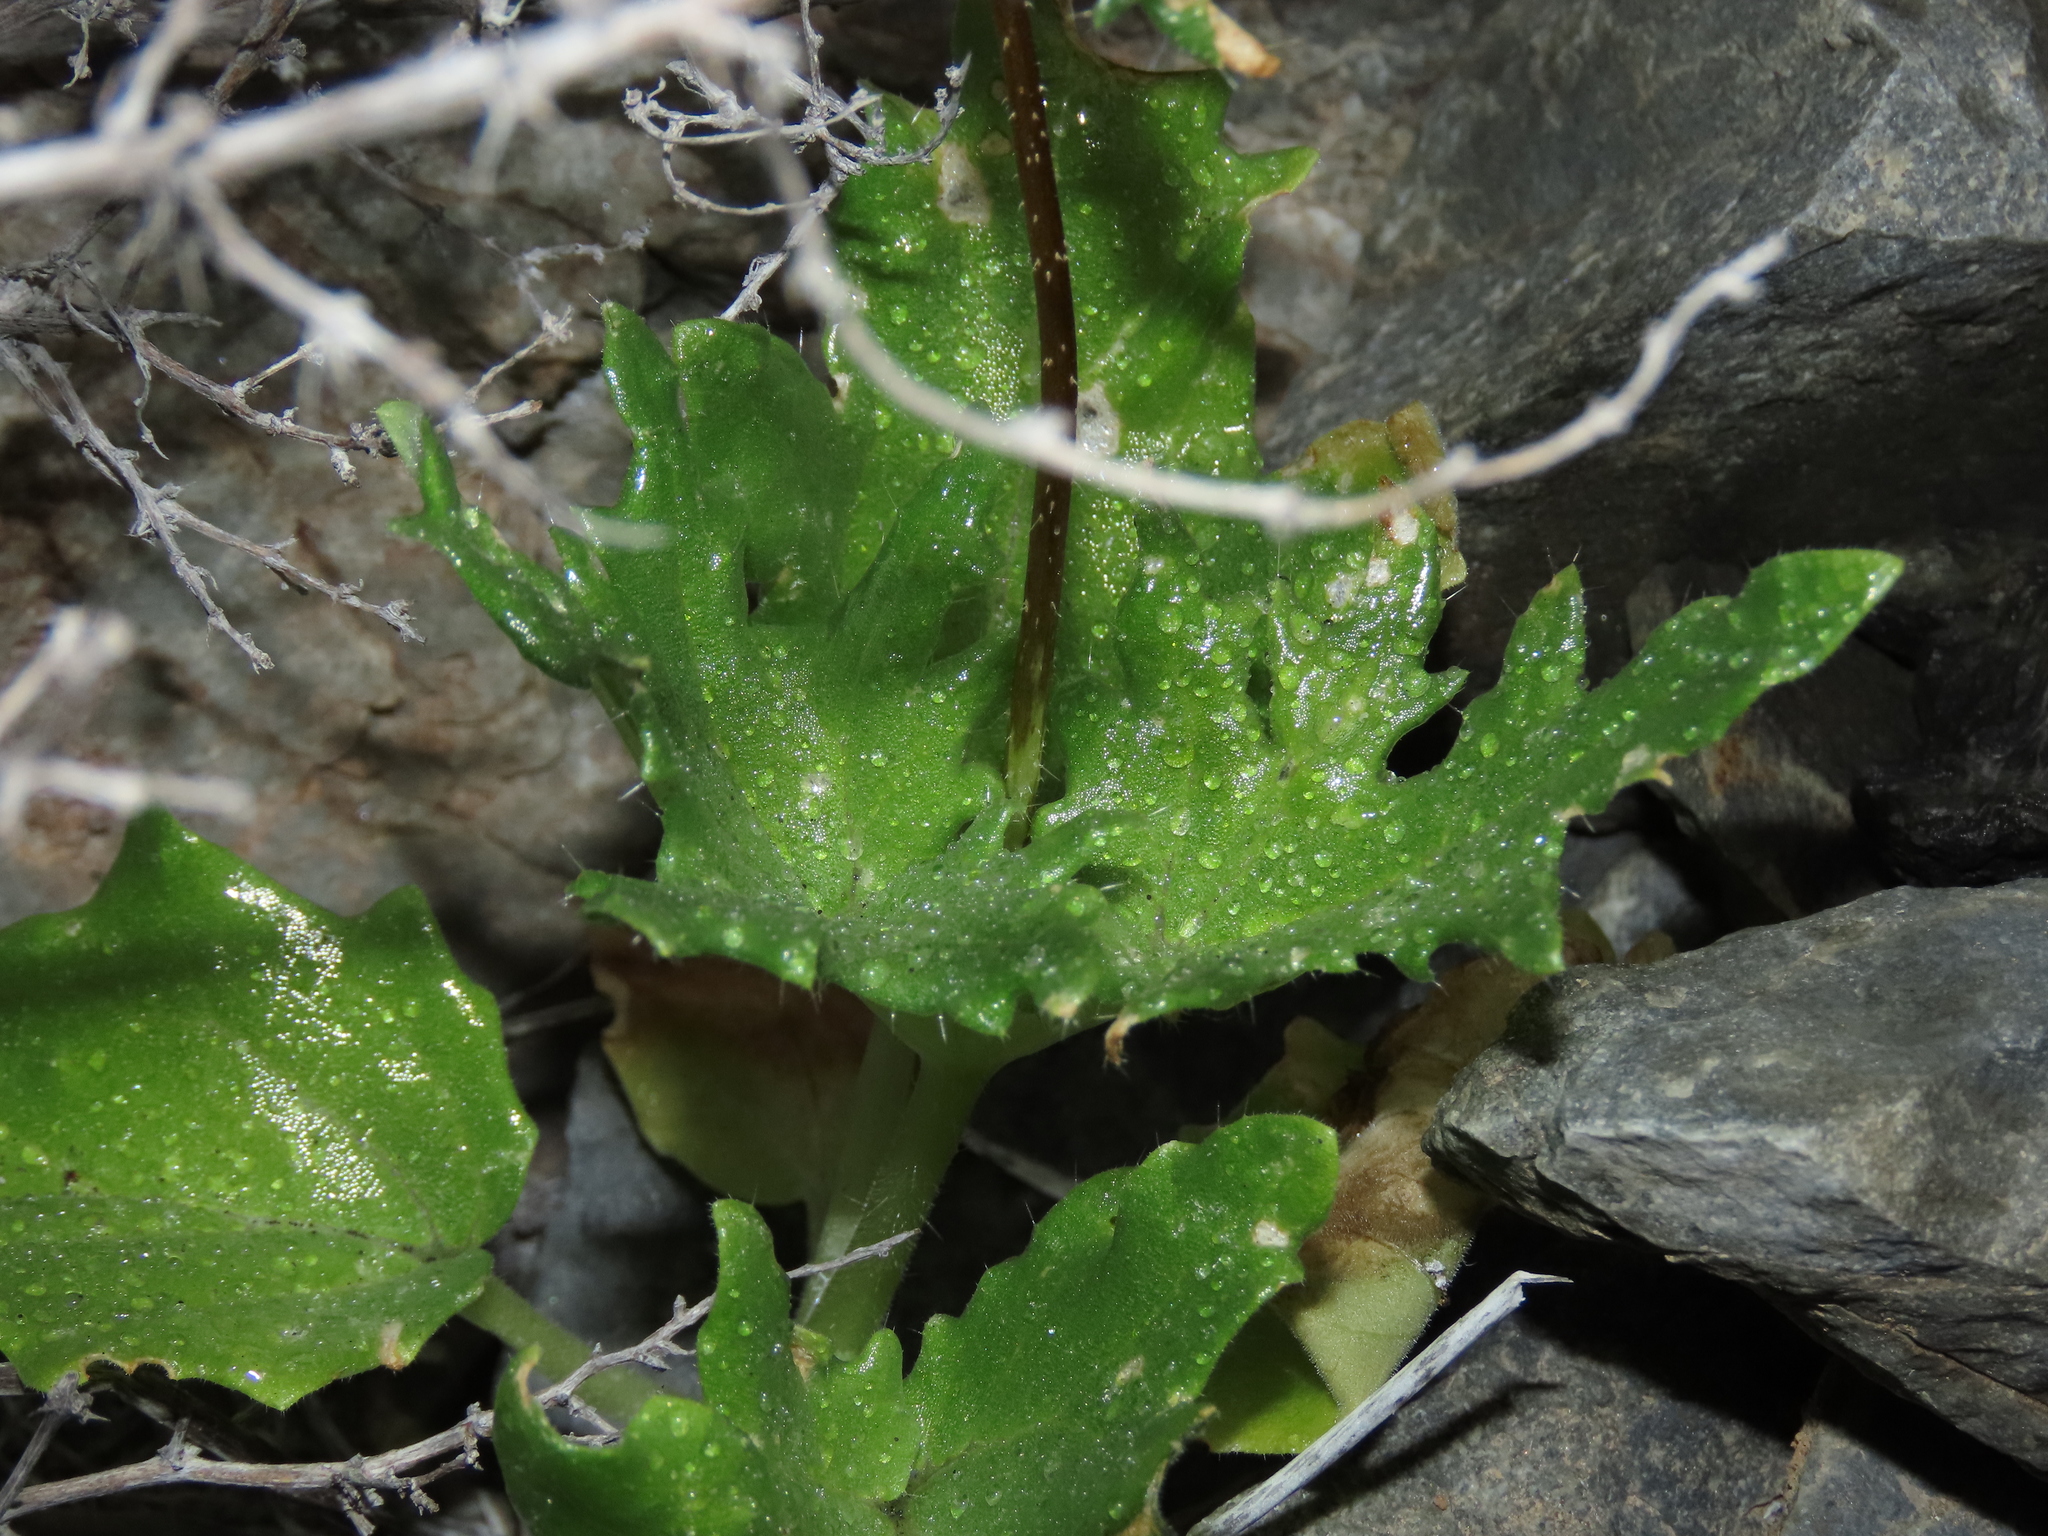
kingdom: Plantae
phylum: Tracheophyta
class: Magnoliopsida
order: Cornales
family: Loasaceae
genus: Loasa
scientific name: Loasa elongata
